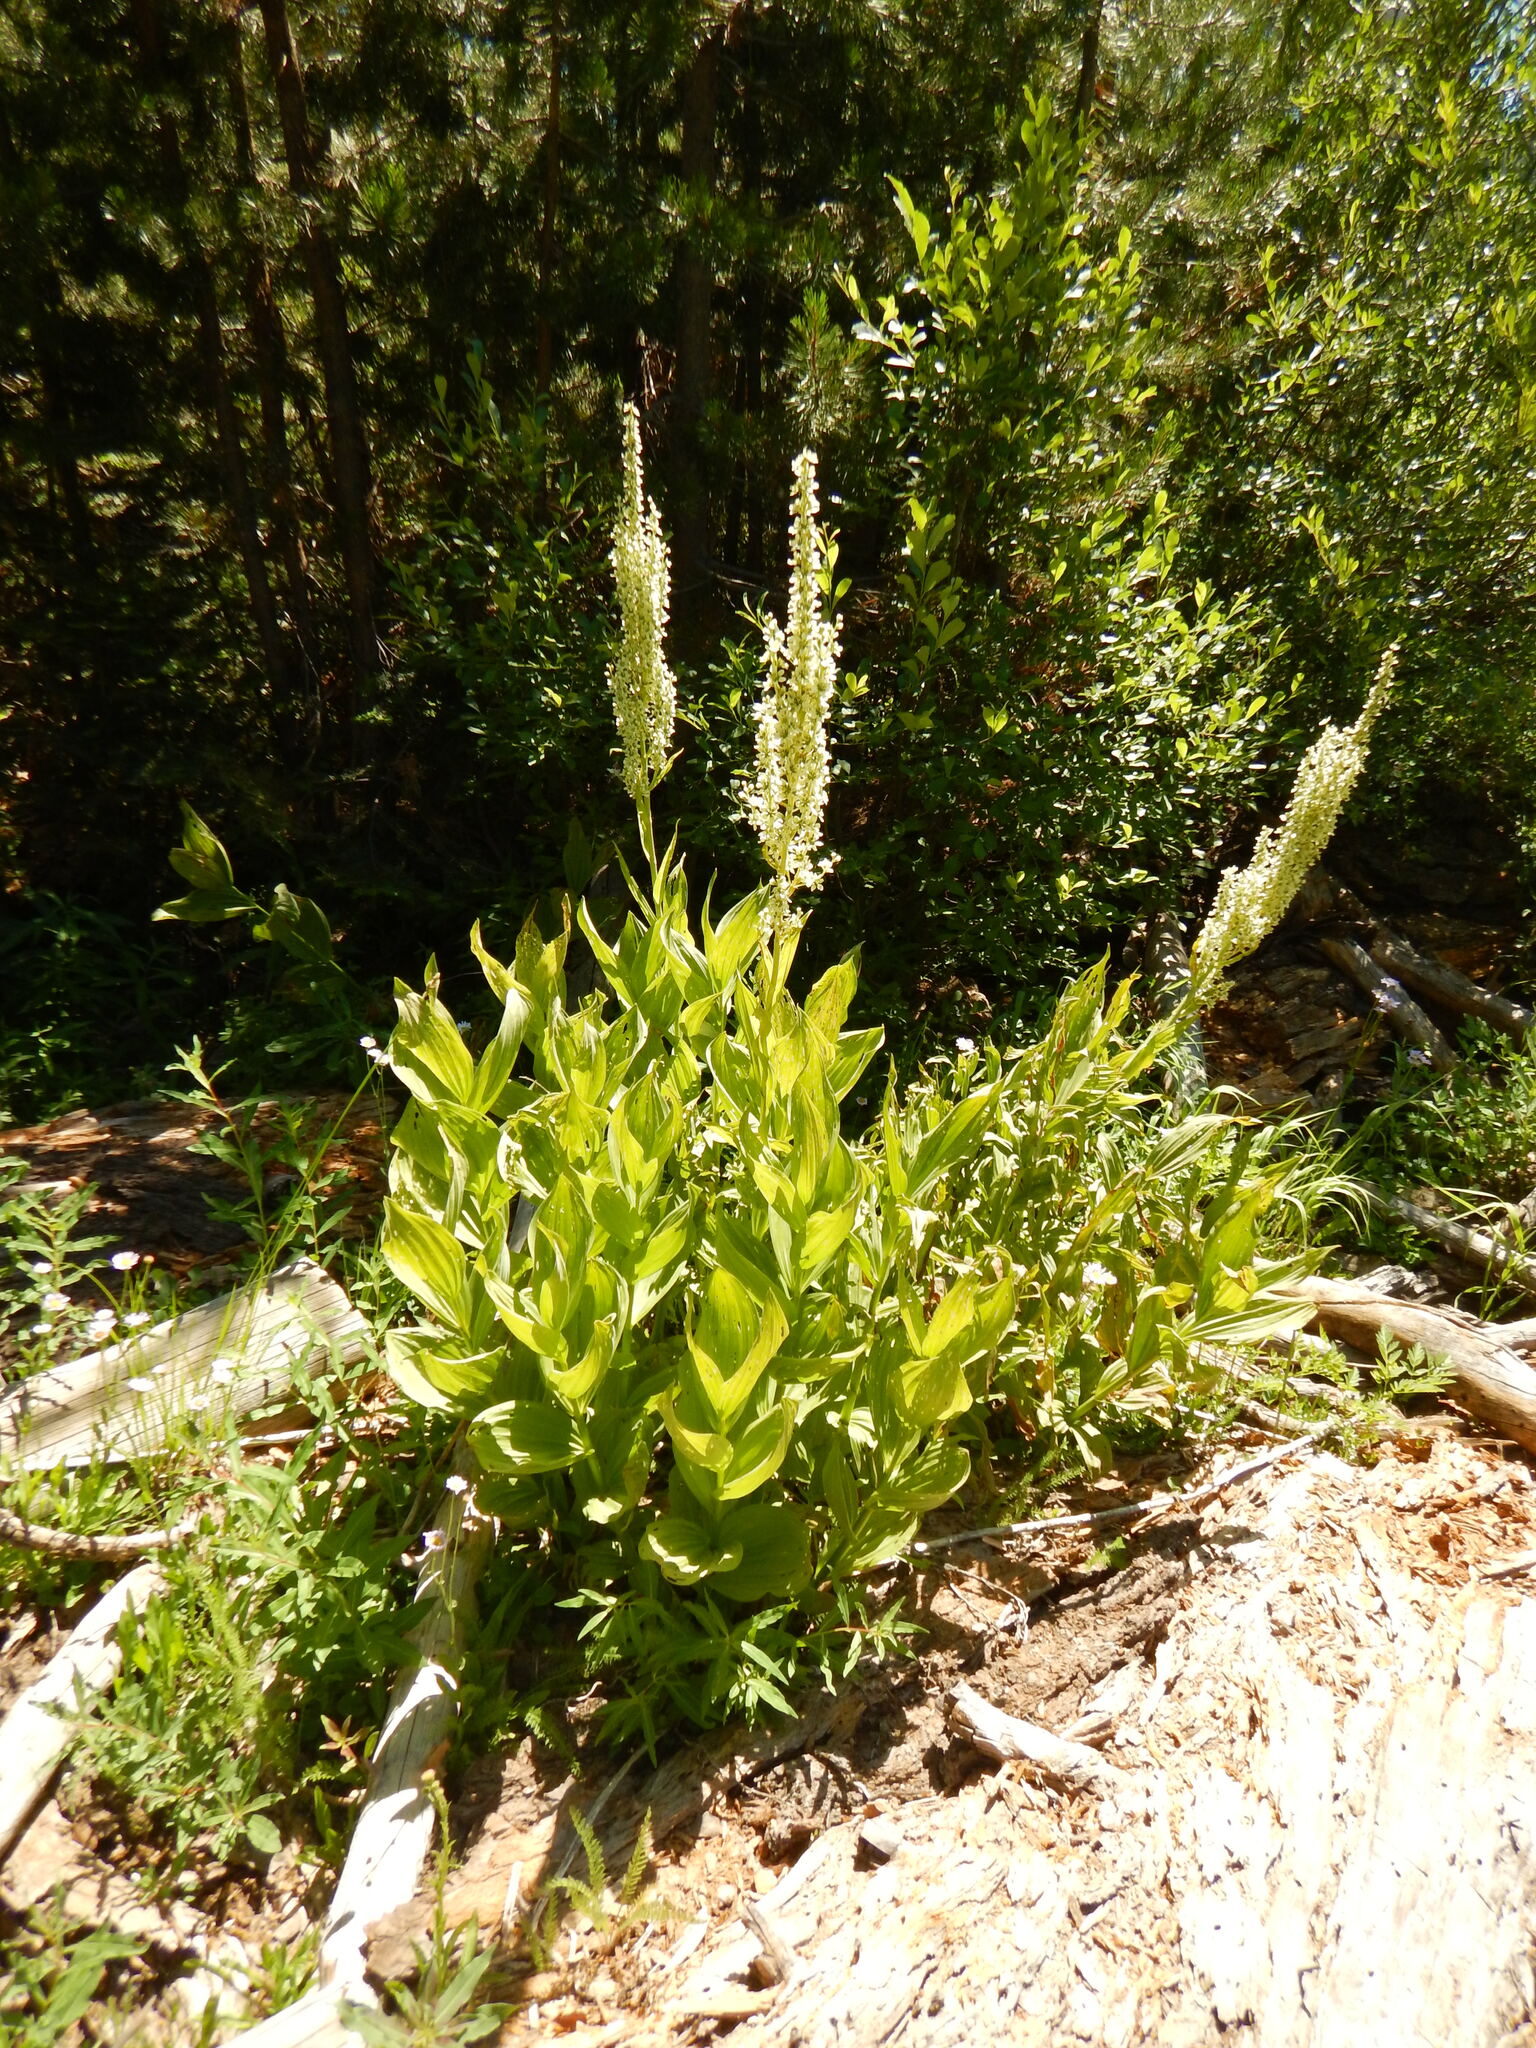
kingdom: Plantae
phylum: Tracheophyta
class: Liliopsida
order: Liliales
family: Melanthiaceae
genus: Veratrum
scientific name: Veratrum californicum
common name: California veratrum
